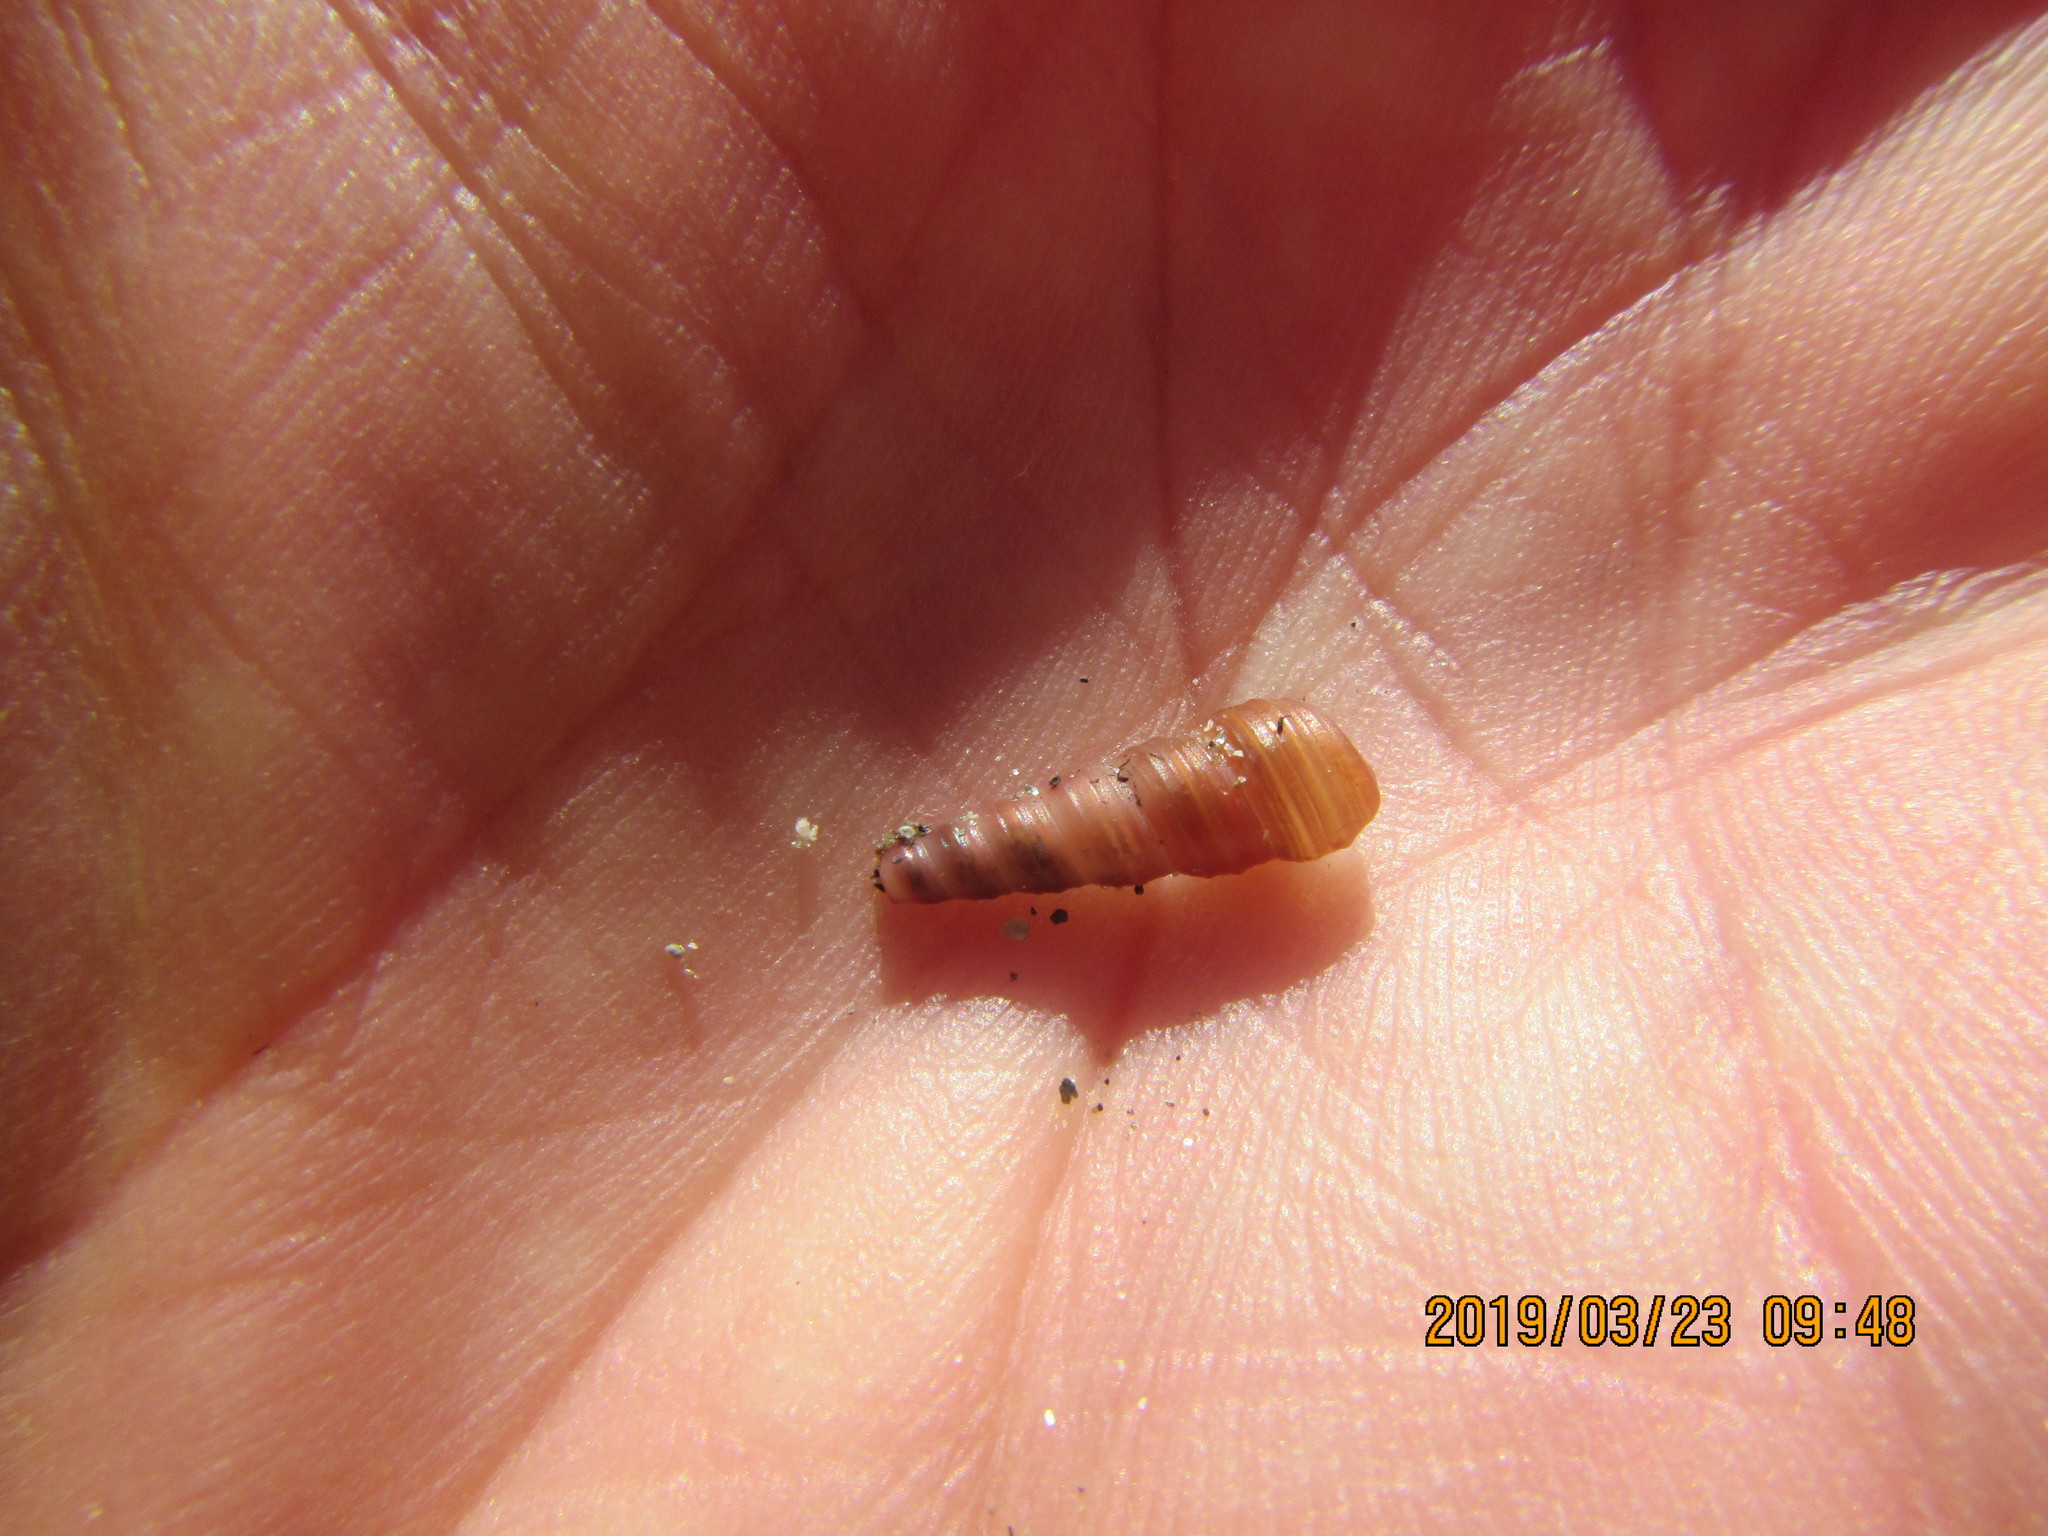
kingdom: Animalia
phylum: Mollusca
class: Gastropoda
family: Turritellidae
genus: Stiracolpus
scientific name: Stiracolpus pagoda
